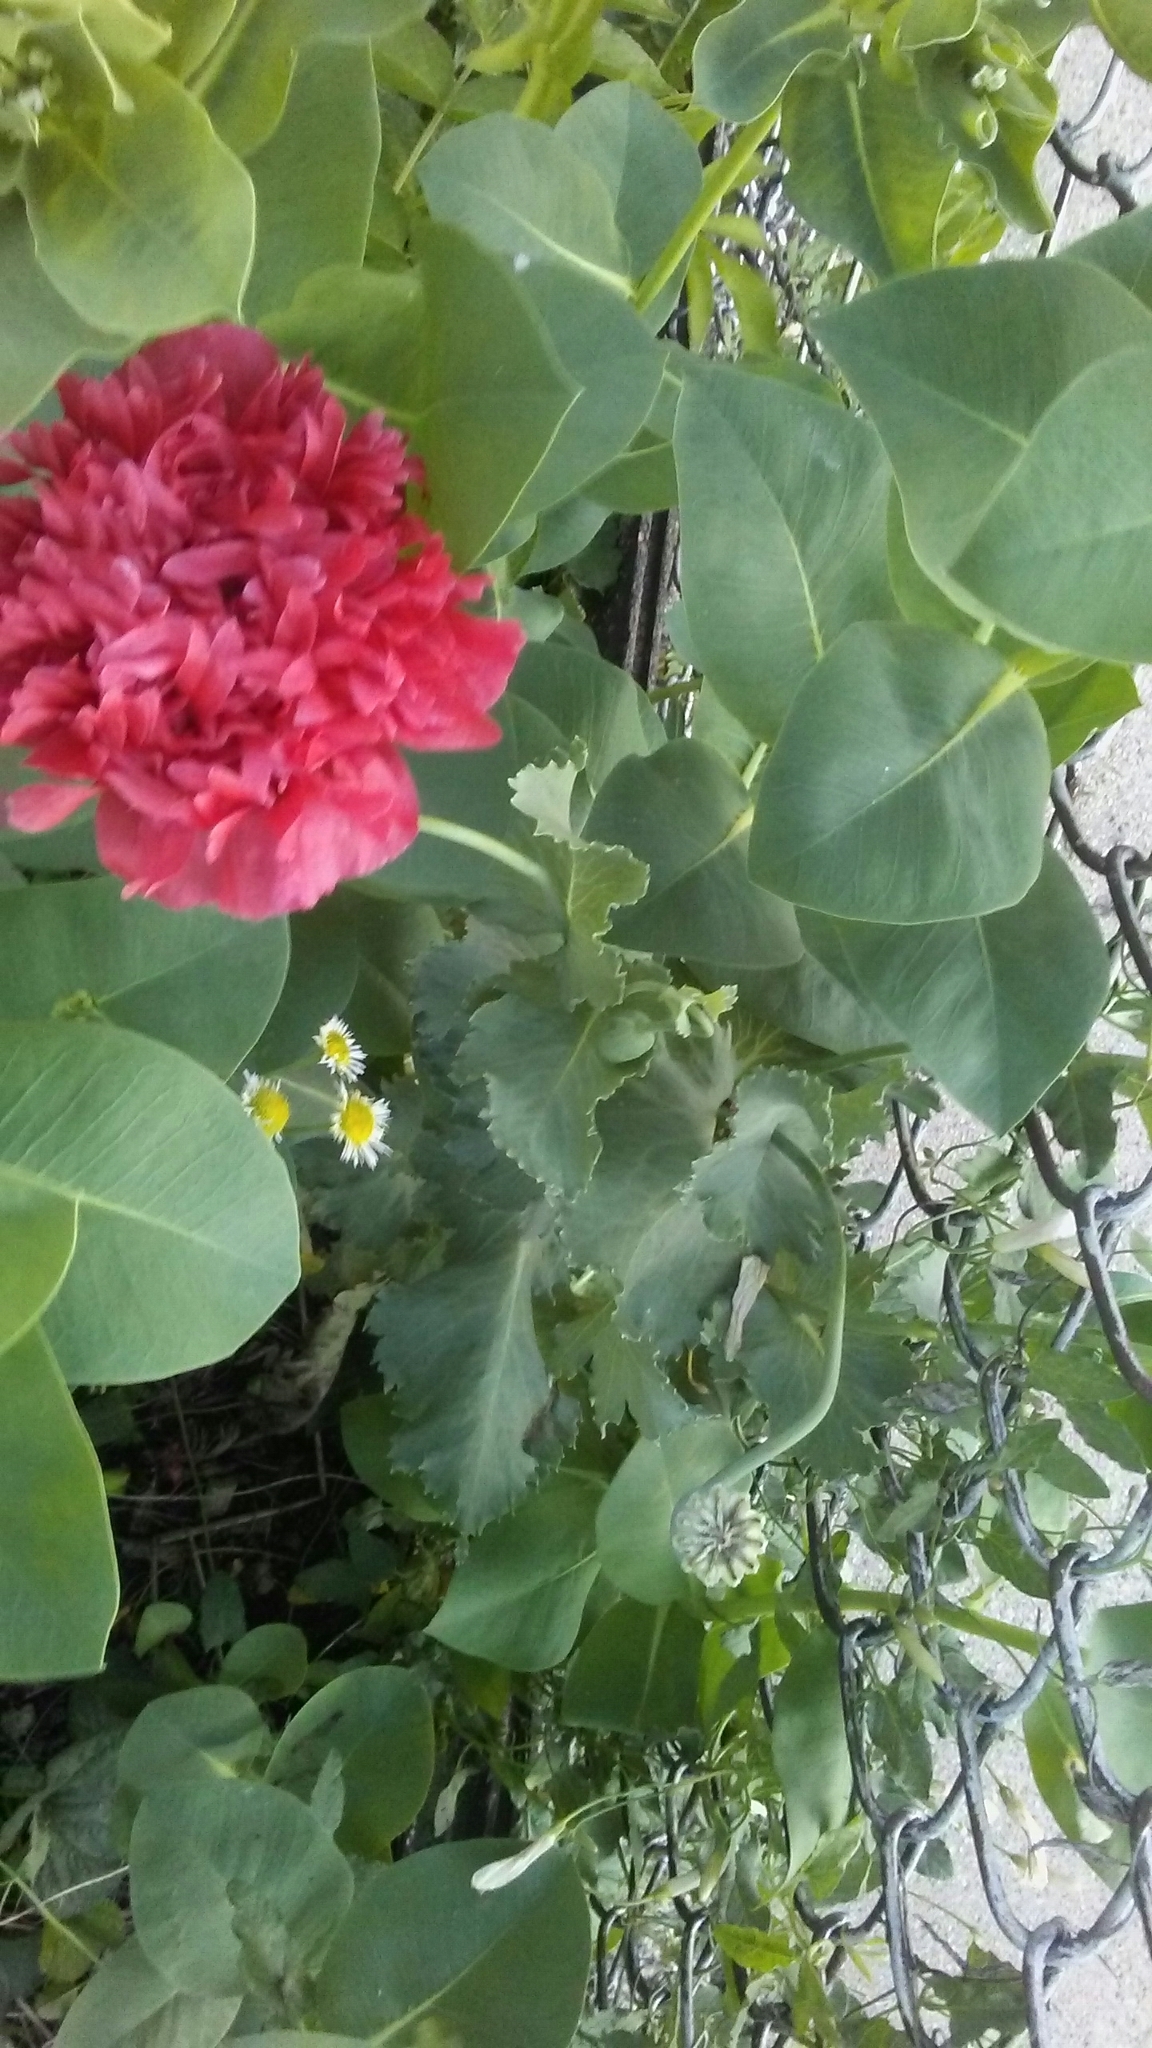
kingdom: Plantae
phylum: Tracheophyta
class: Magnoliopsida
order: Ranunculales
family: Papaveraceae
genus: Papaver
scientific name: Papaver somniferum
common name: Opium poppy
